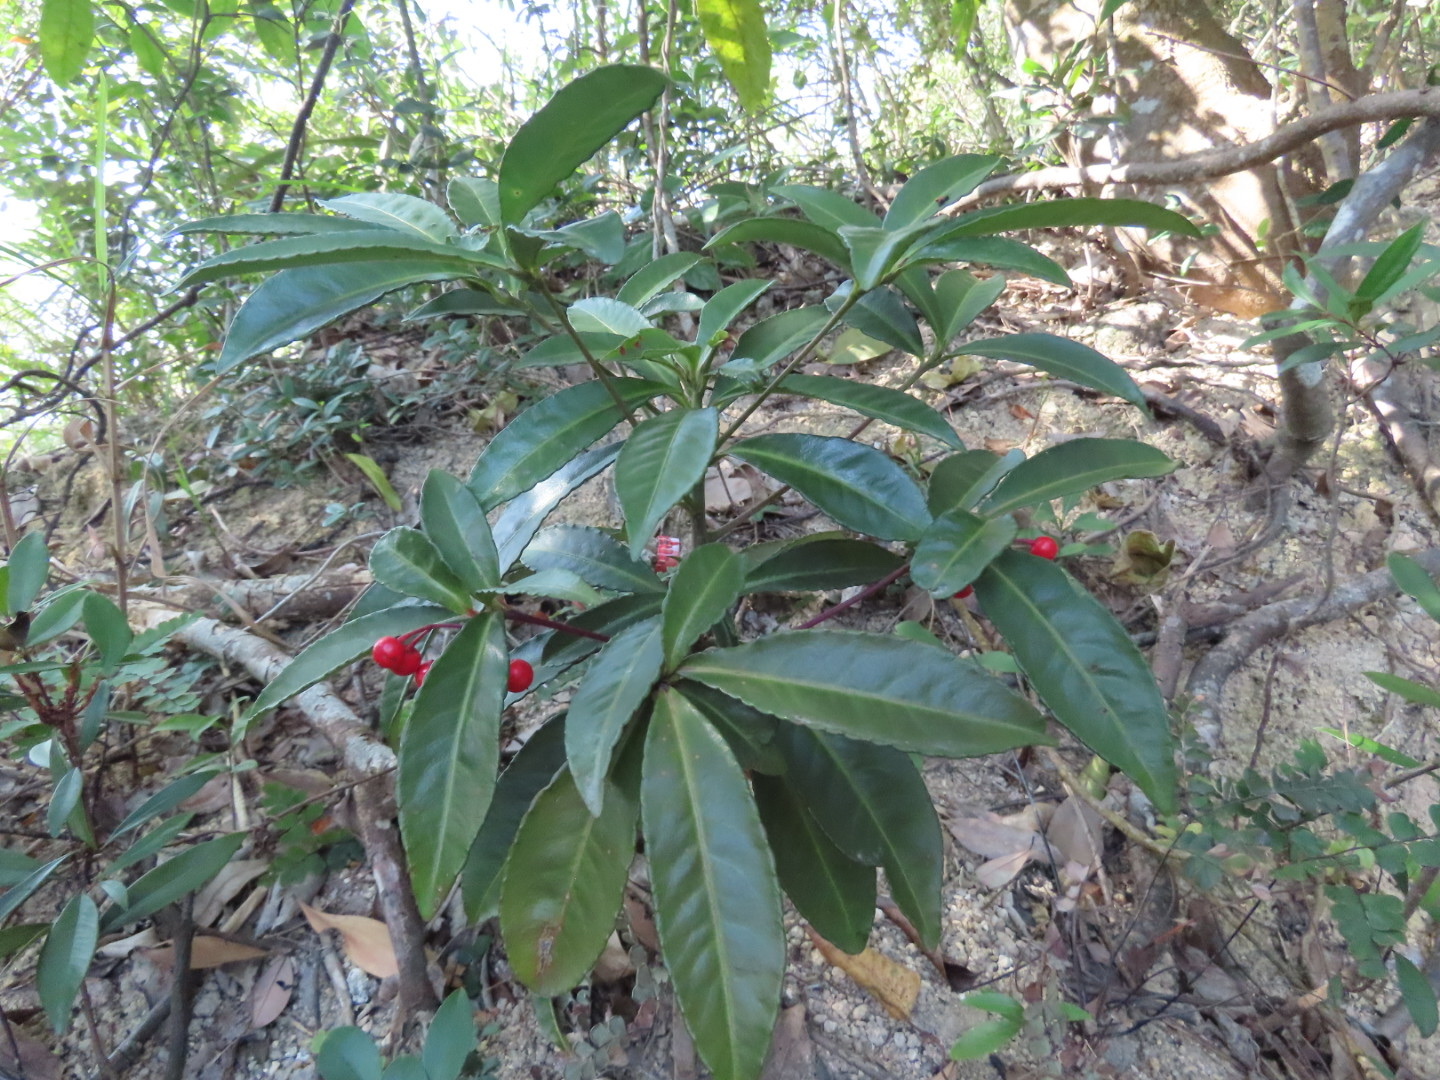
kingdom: Plantae
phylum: Tracheophyta
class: Magnoliopsida
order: Ericales
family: Primulaceae
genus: Ardisia
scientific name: Ardisia crenata
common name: Hen's eyes
